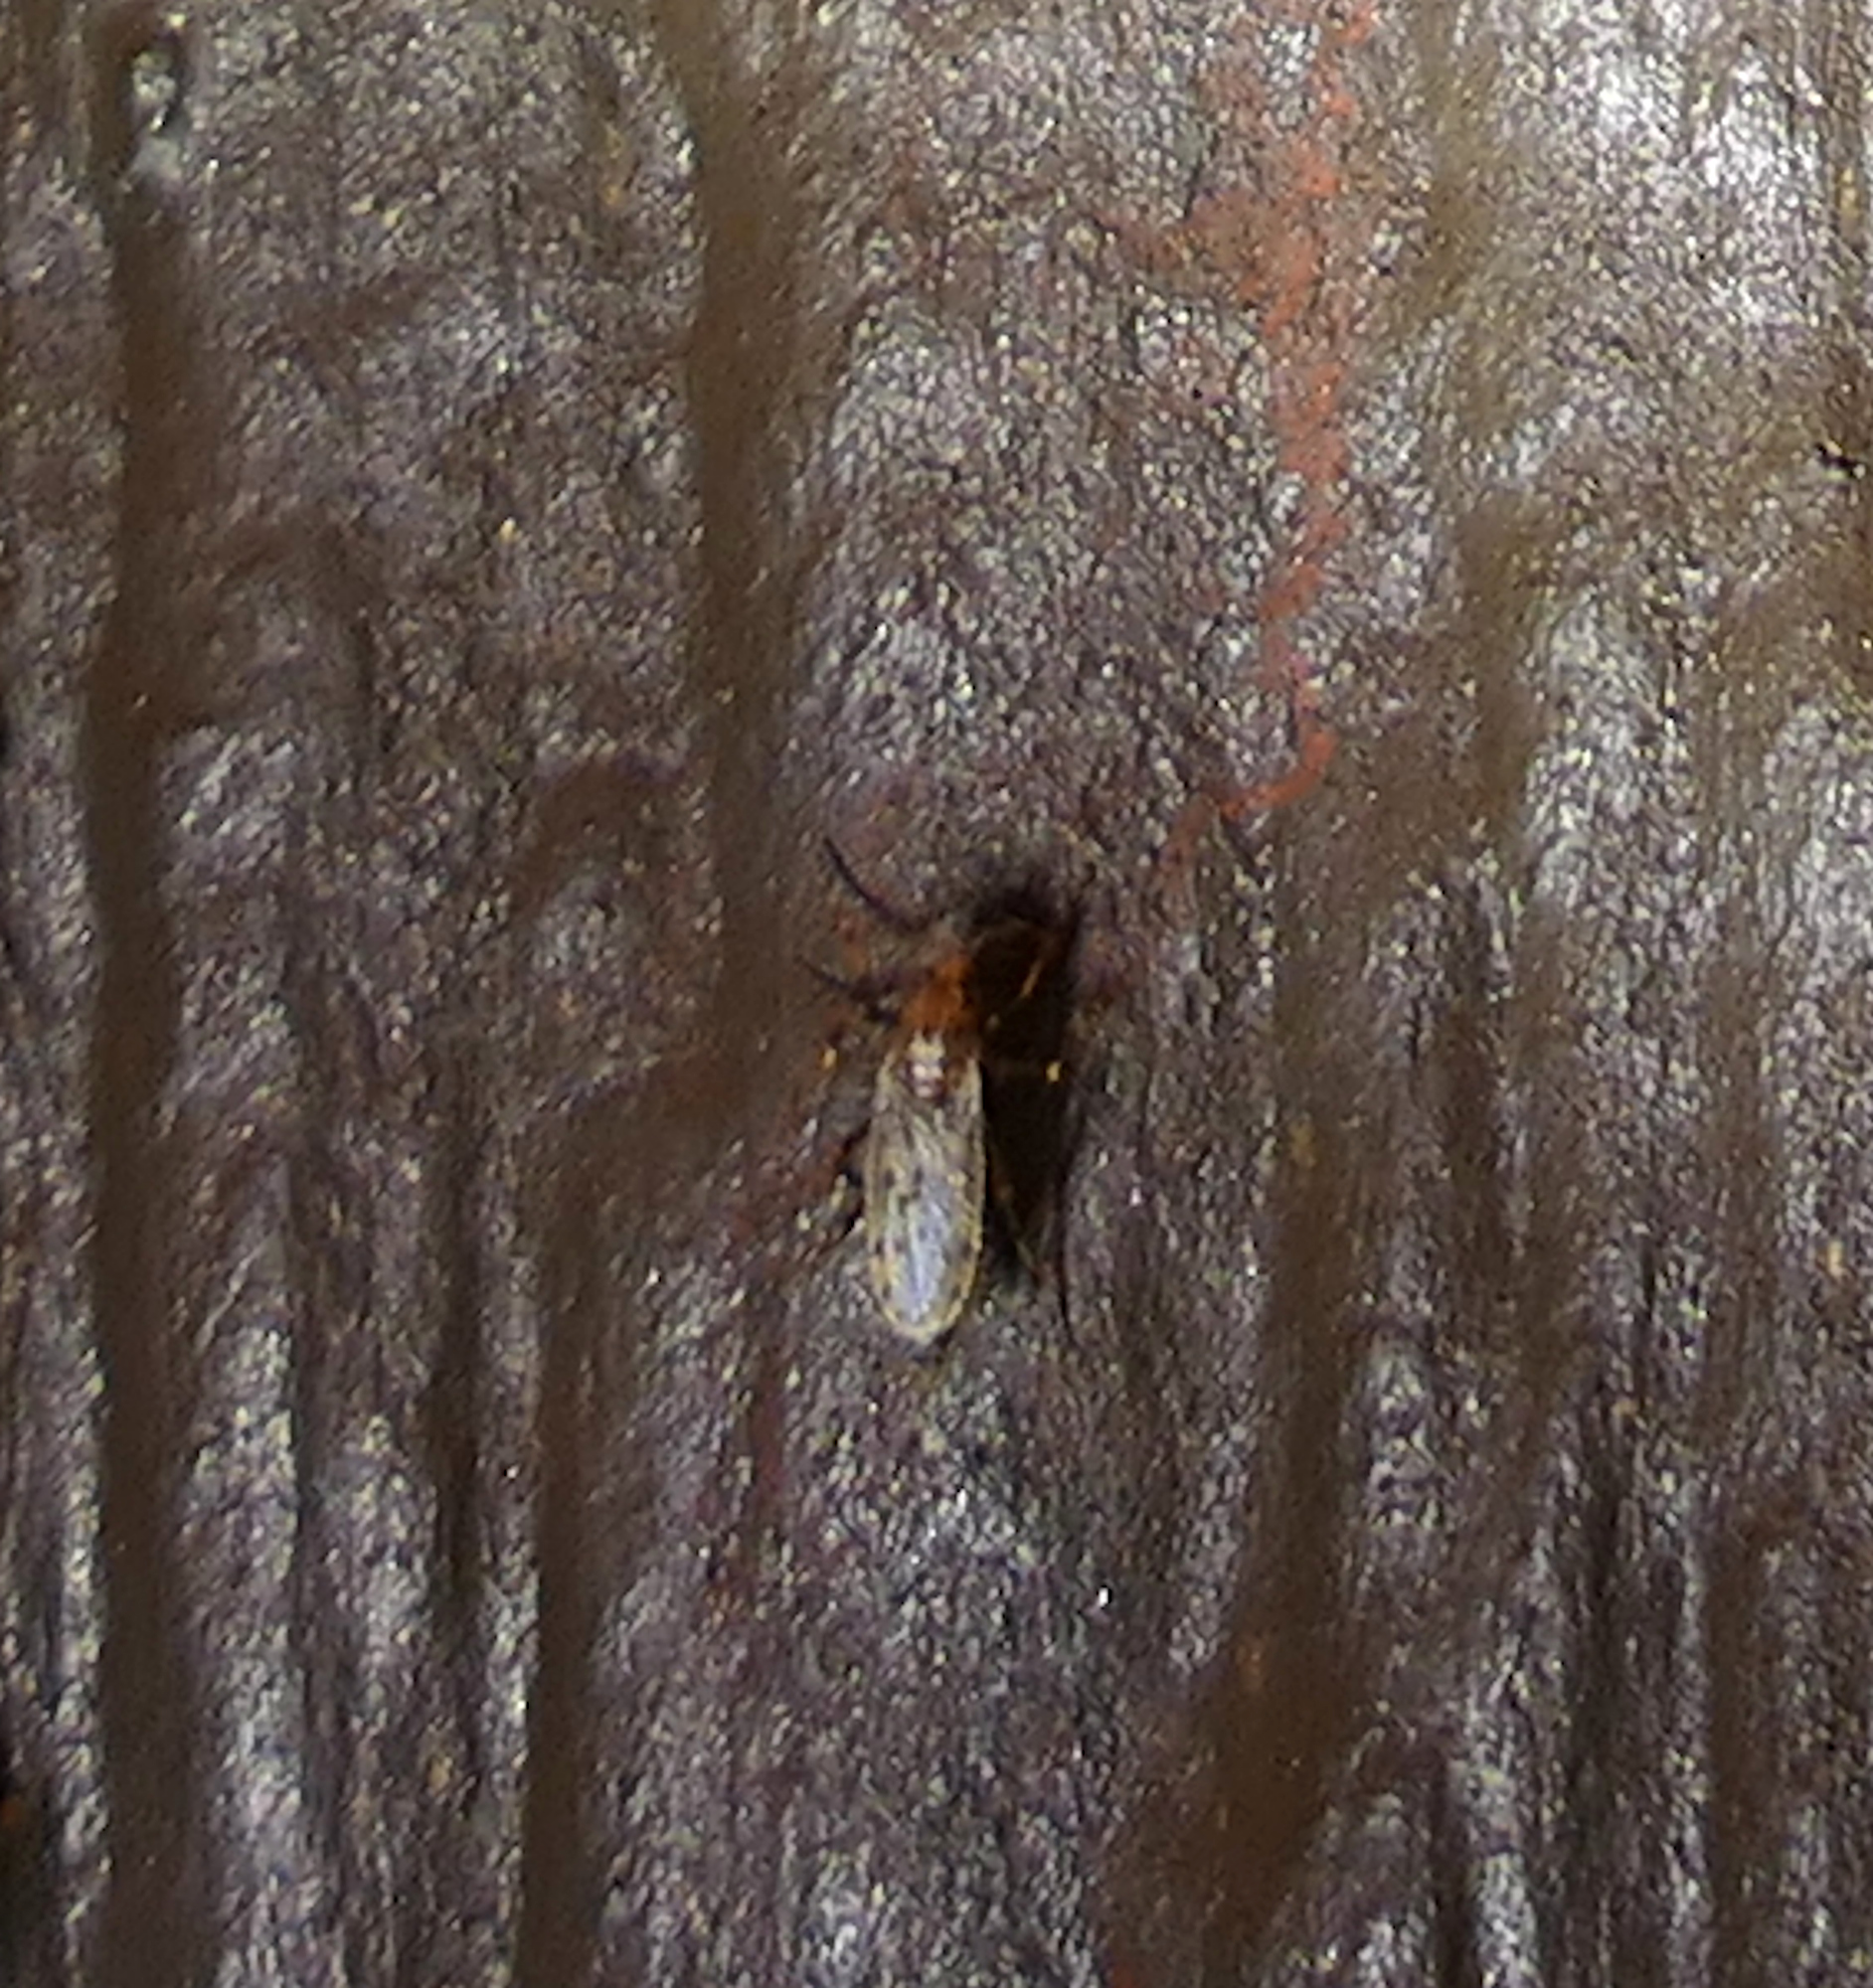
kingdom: Animalia
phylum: Arthropoda
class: Insecta
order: Diptera
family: Chaoboridae
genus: Chaoborus
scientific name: Chaoborus punctipennis
